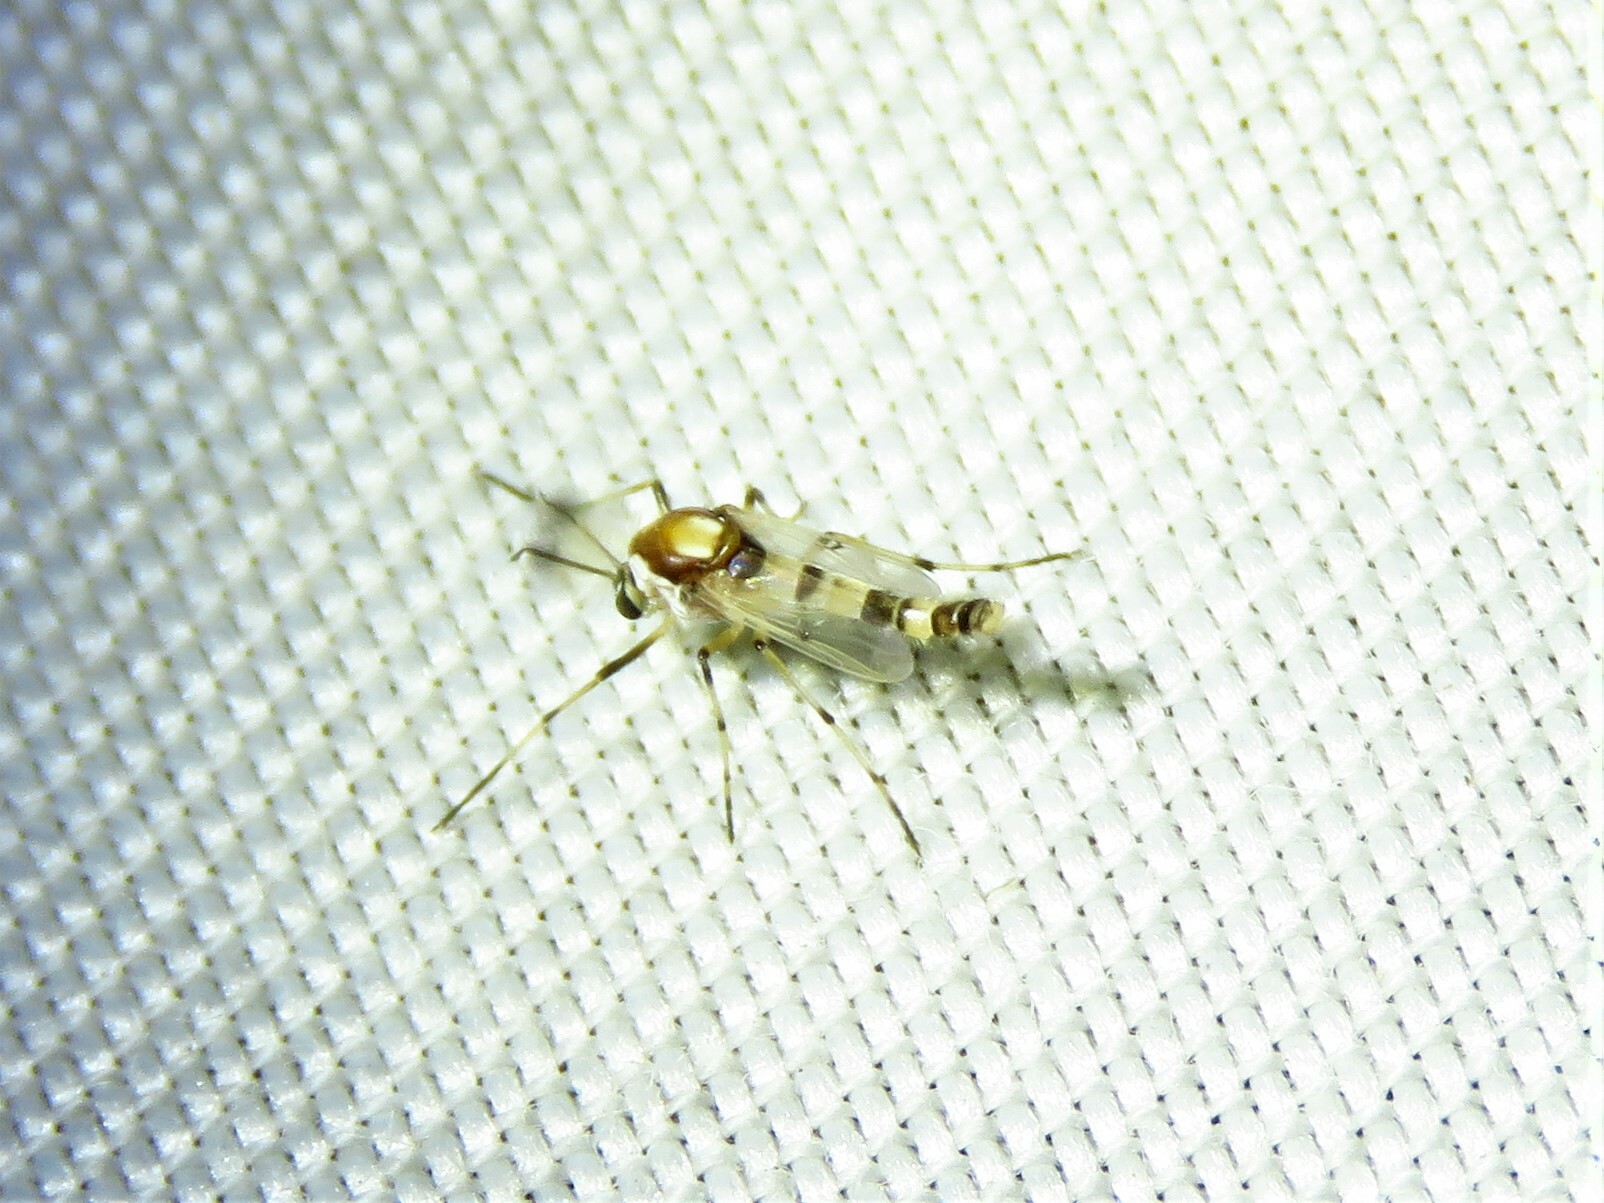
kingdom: Animalia
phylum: Arthropoda
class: Insecta
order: Diptera
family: Chironomidae
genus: Coelotanypus
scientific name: Coelotanypus atus
